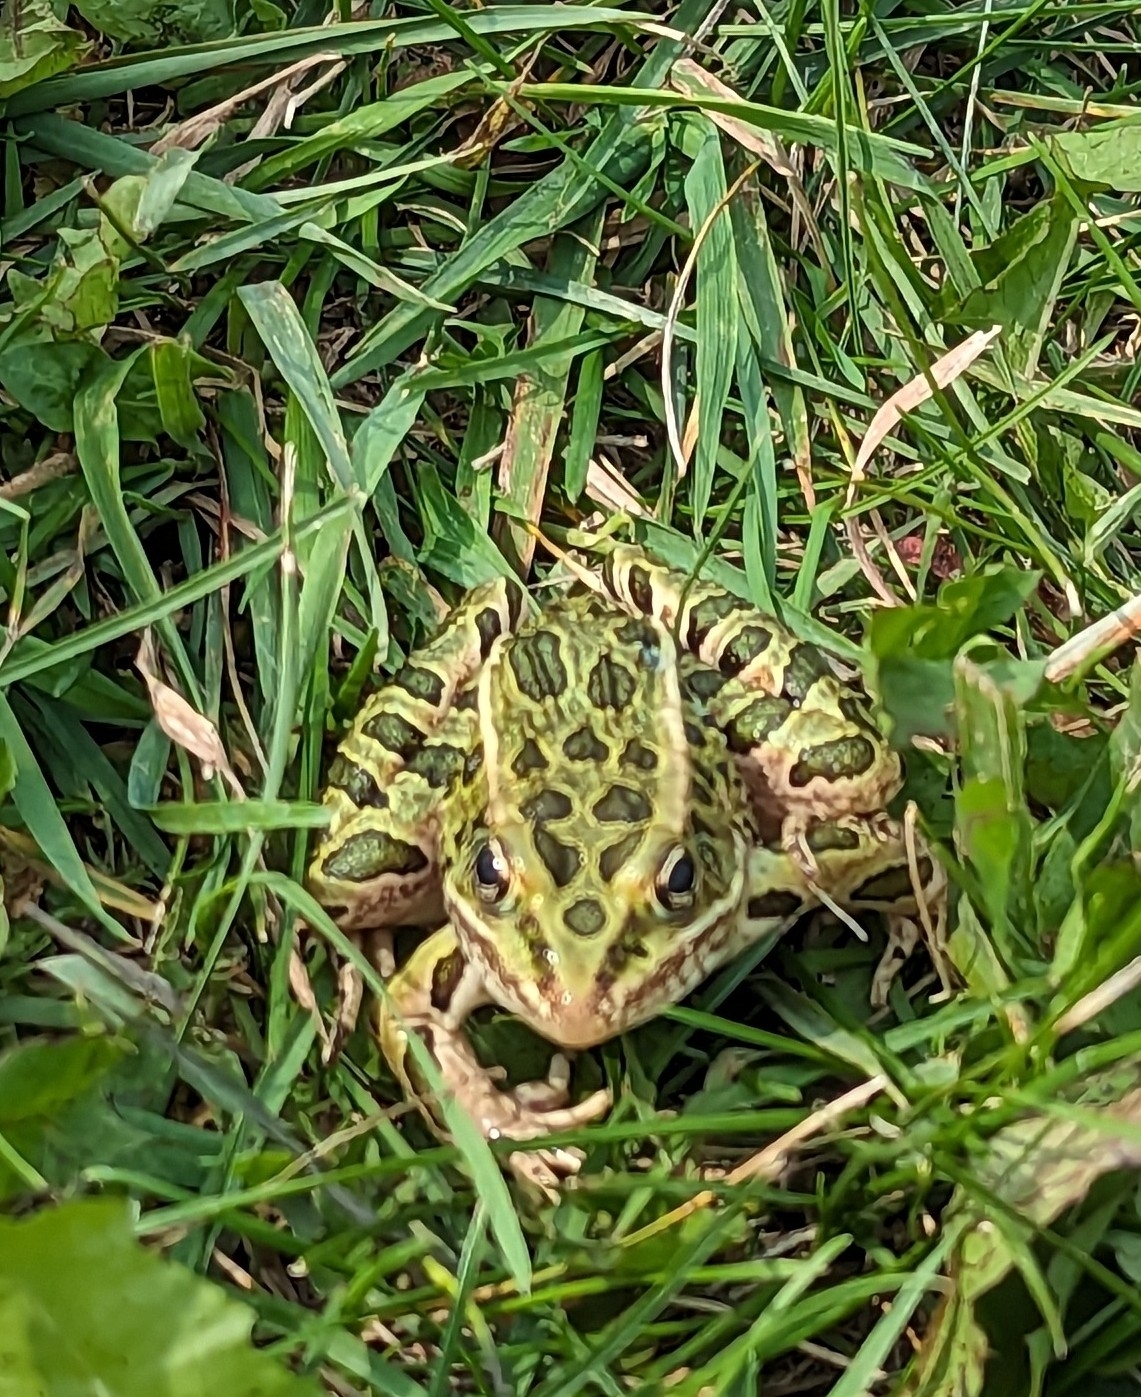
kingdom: Animalia
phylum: Chordata
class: Amphibia
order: Anura
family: Ranidae
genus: Lithobates
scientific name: Lithobates pipiens
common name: Northern leopard frog
